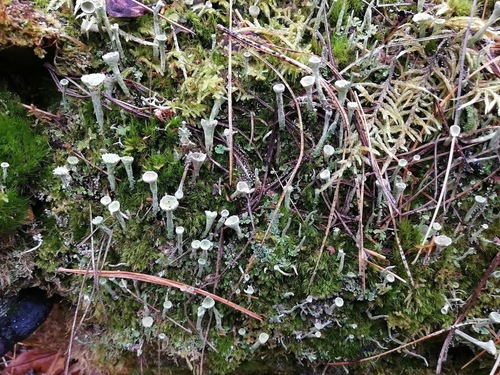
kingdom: Fungi
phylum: Ascomycota
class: Lecanoromycetes
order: Lecanorales
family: Cladoniaceae
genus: Cladonia
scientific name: Cladonia
